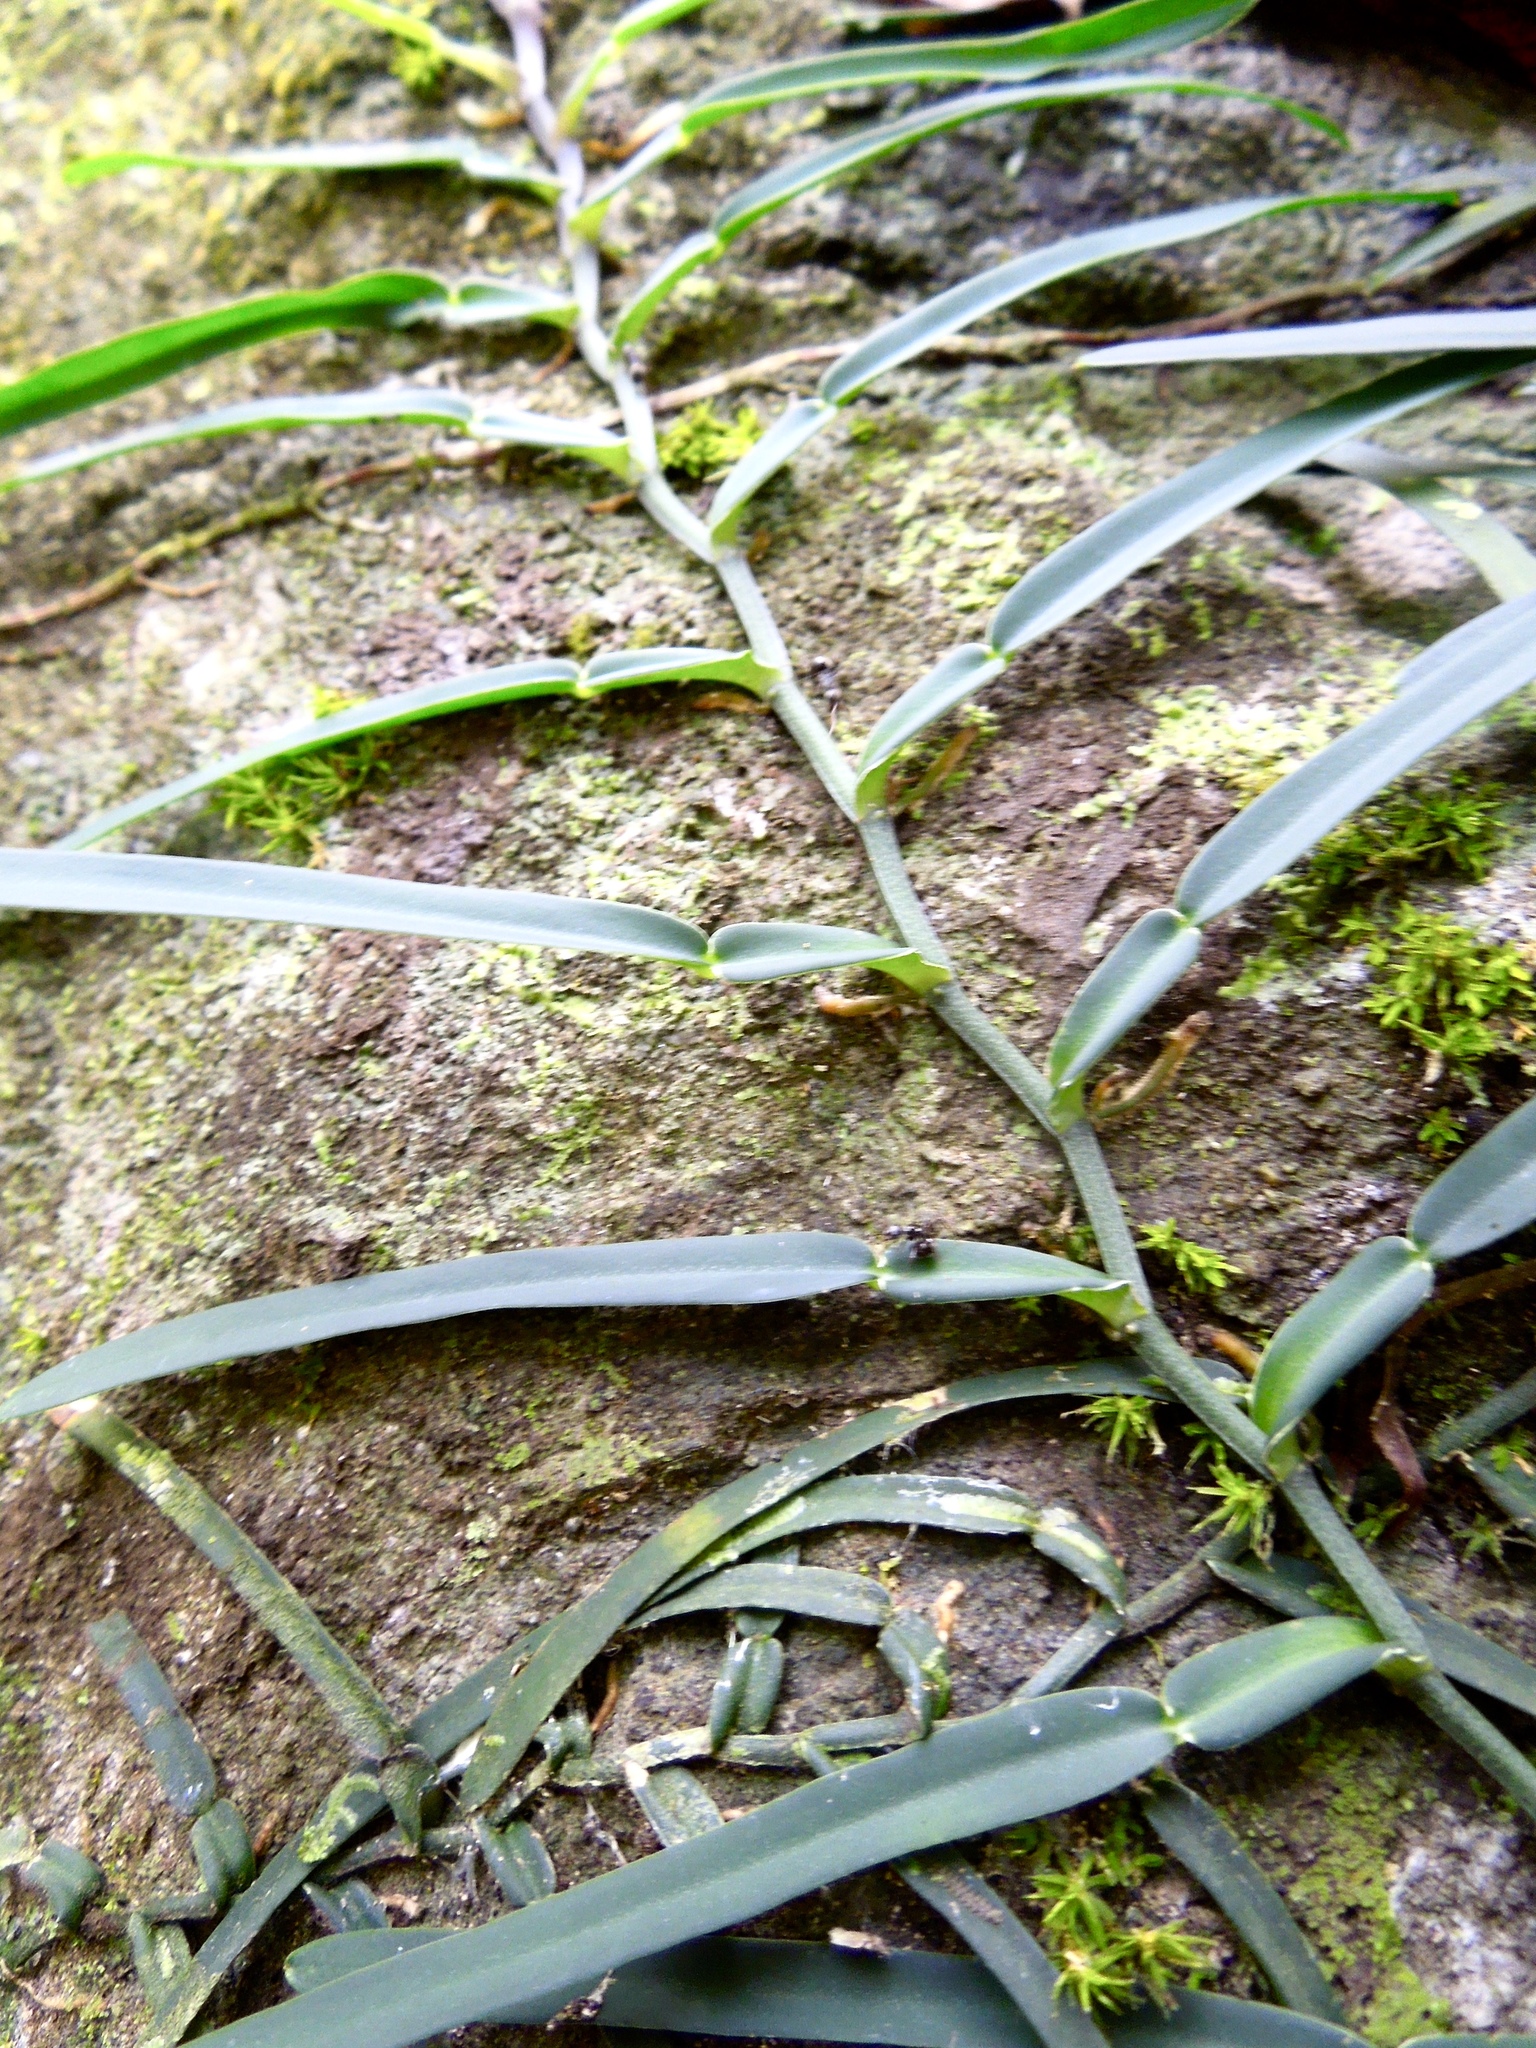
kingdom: Plantae
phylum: Tracheophyta
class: Liliopsida
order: Alismatales
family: Araceae
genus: Pothos
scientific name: Pothos scandens
